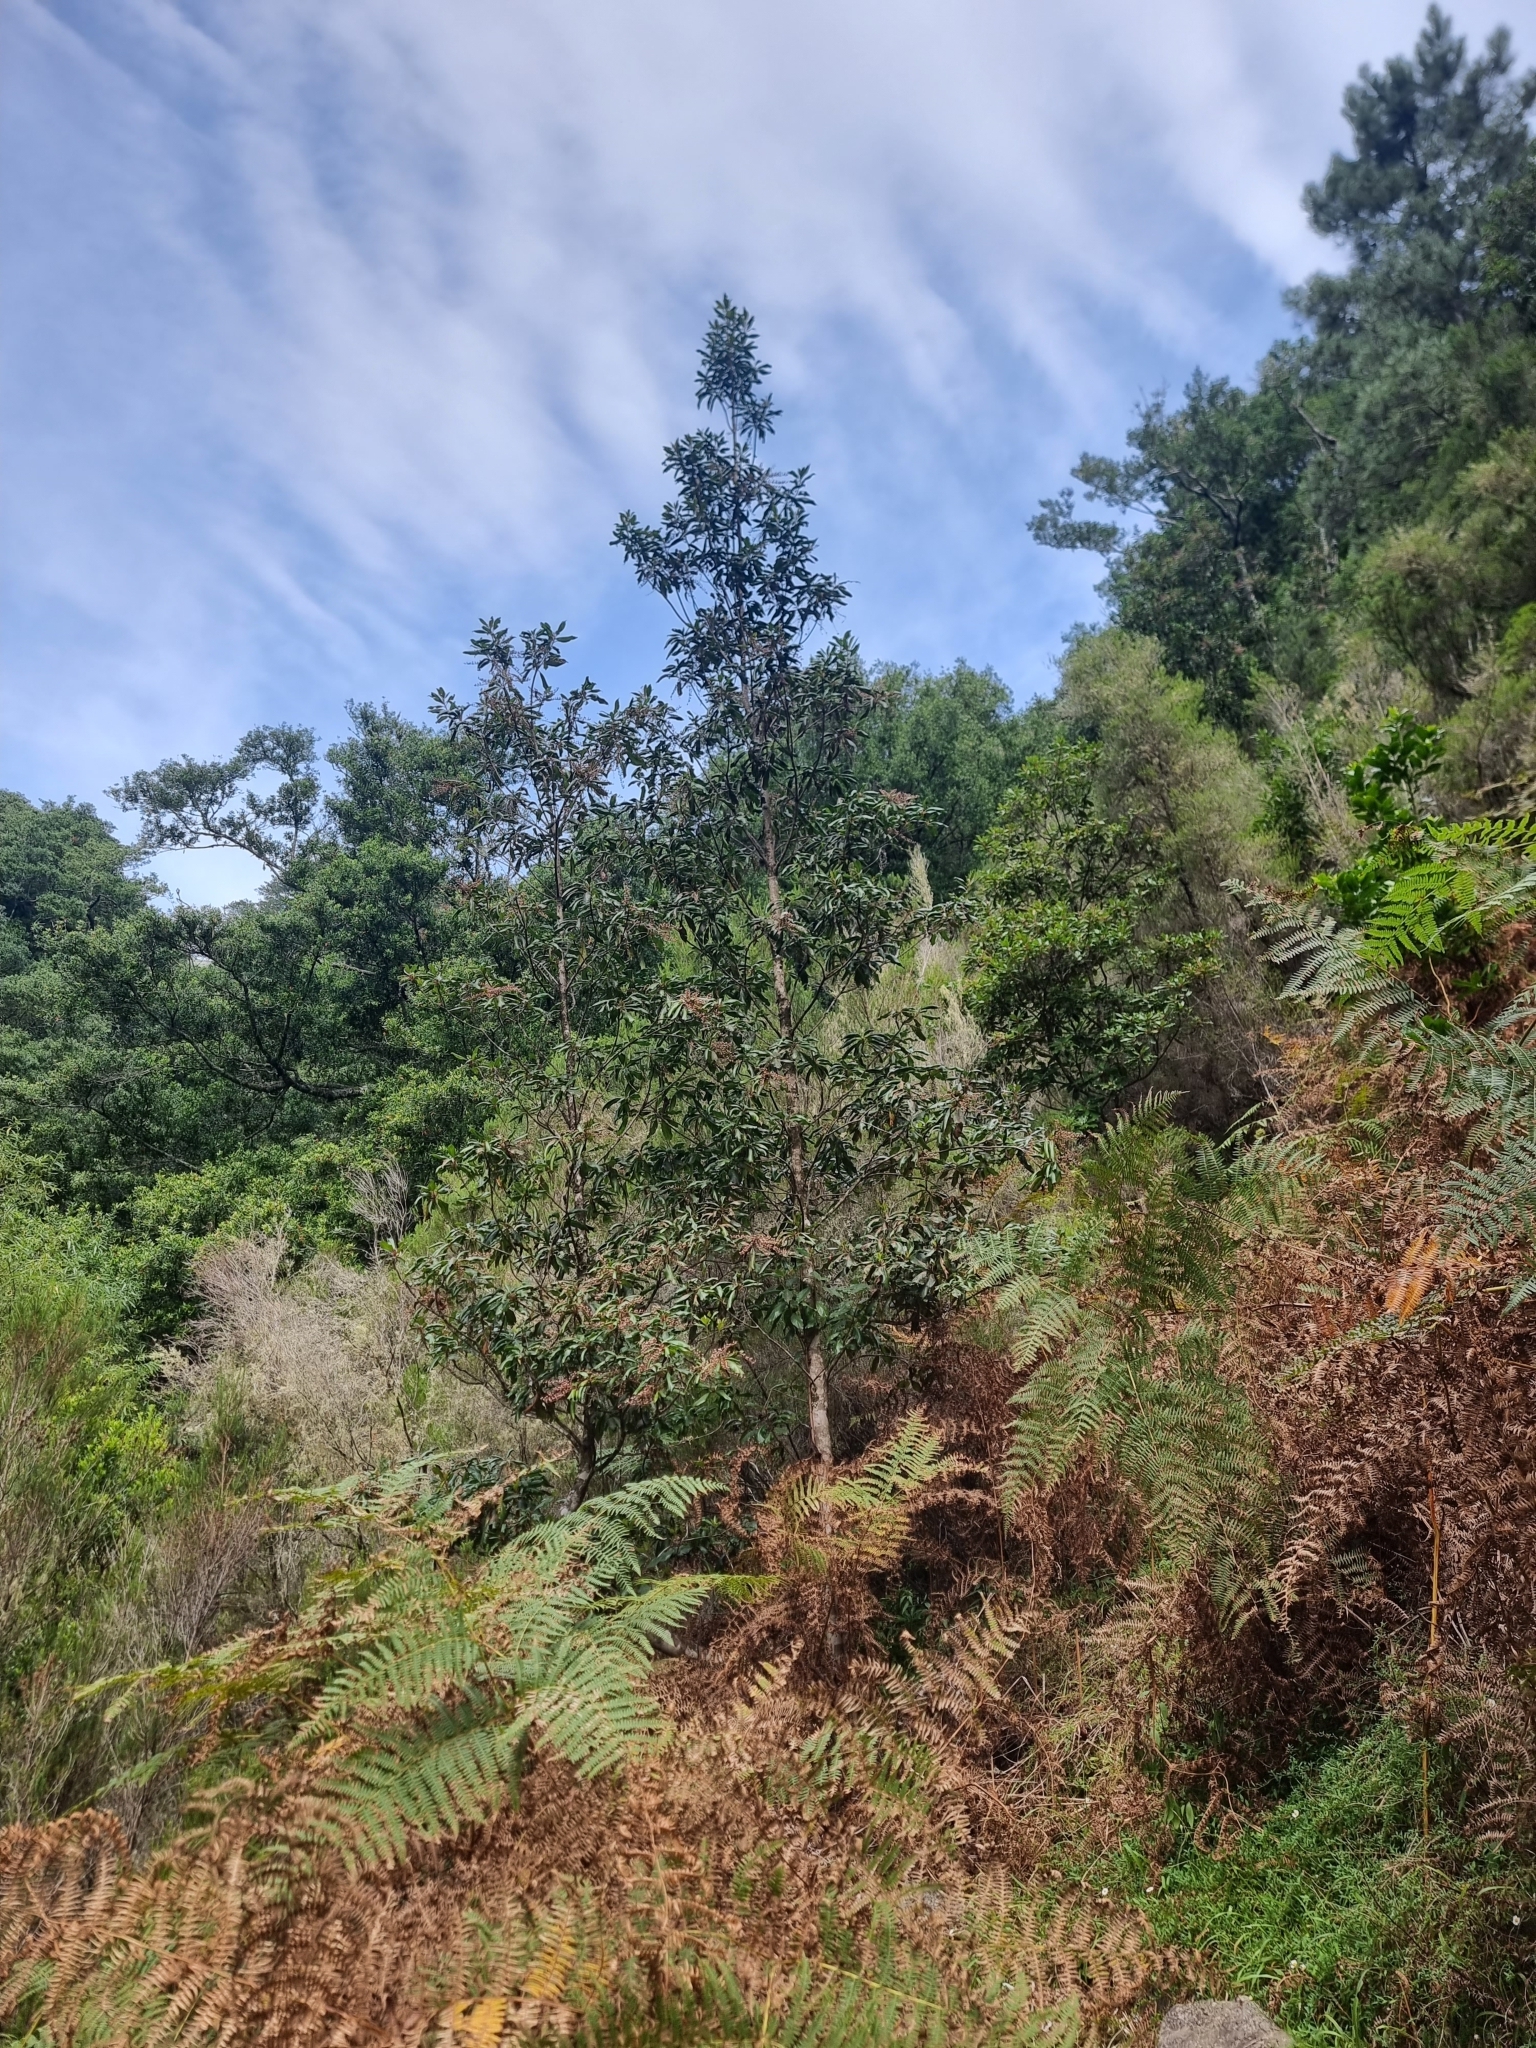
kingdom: Plantae
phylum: Tracheophyta
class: Magnoliopsida
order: Ericales
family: Clethraceae
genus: Clethra
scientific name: Clethra arborea
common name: Lily-of-the-valley-tree
